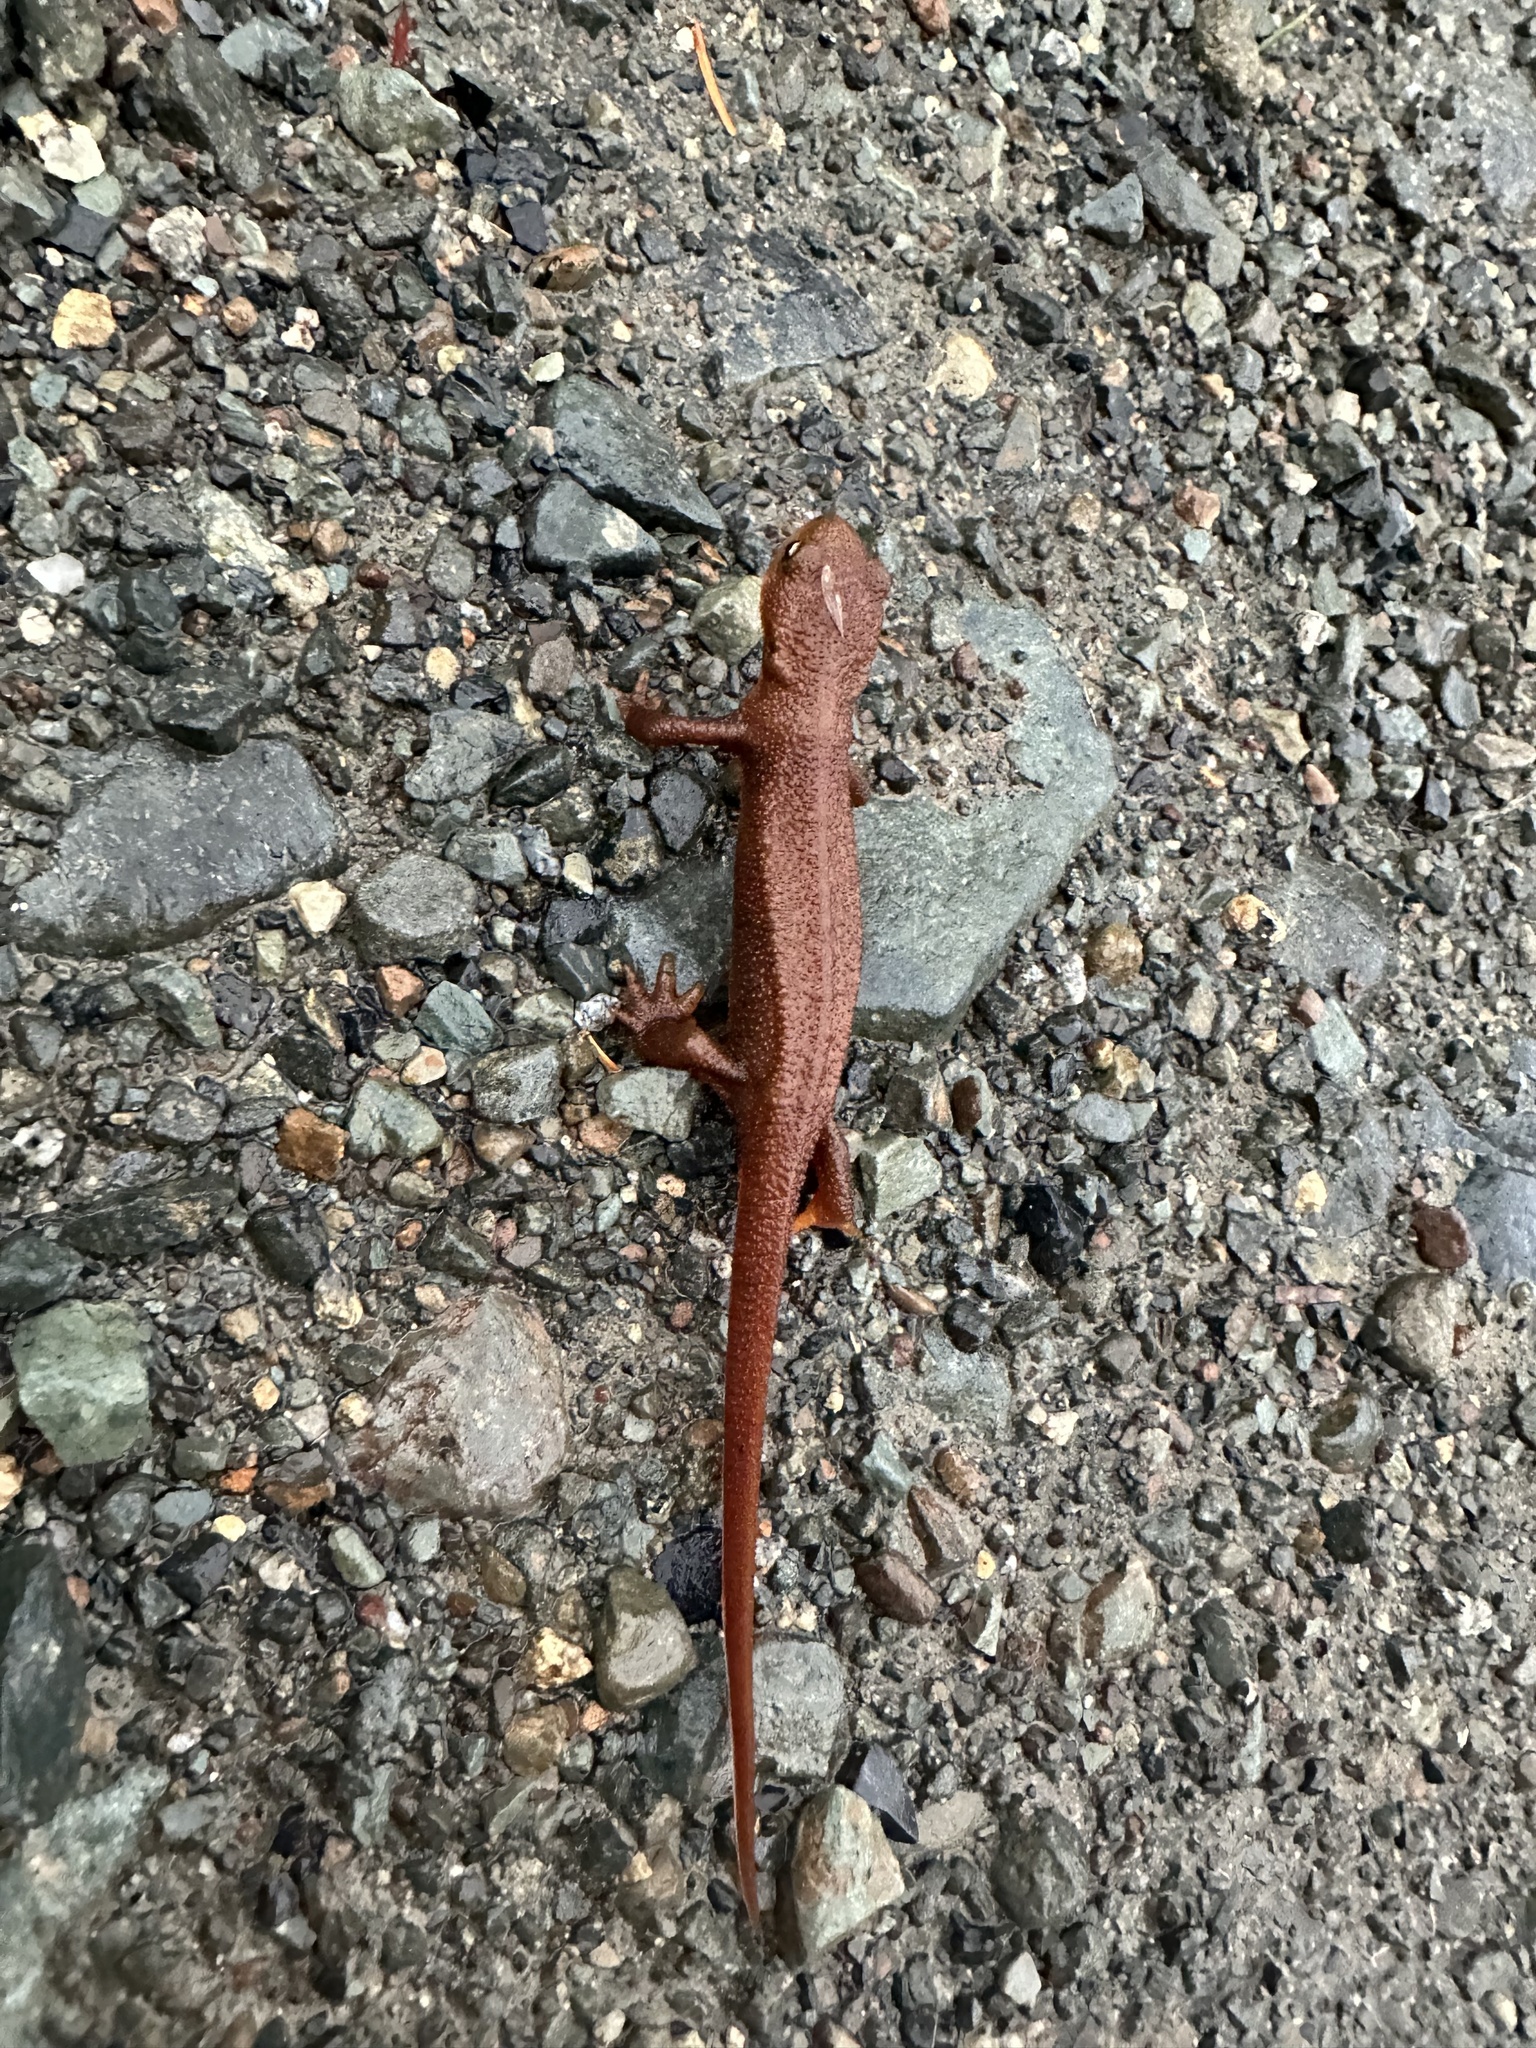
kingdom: Animalia
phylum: Chordata
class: Amphibia
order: Caudata
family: Salamandridae
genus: Taricha
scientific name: Taricha granulosa
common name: Roughskin newt
